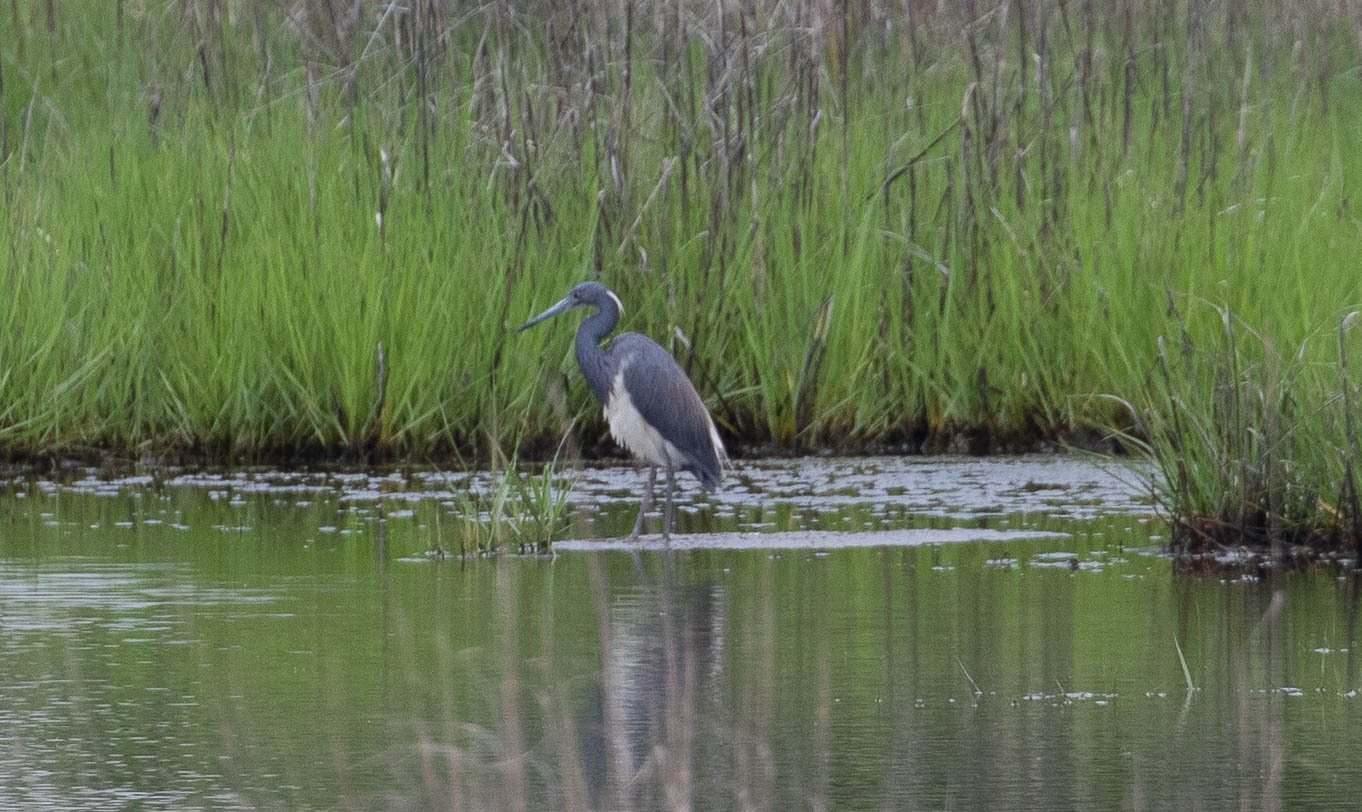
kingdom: Animalia
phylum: Chordata
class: Aves
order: Pelecaniformes
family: Ardeidae
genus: Egretta
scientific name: Egretta tricolor
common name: Tricolored heron
